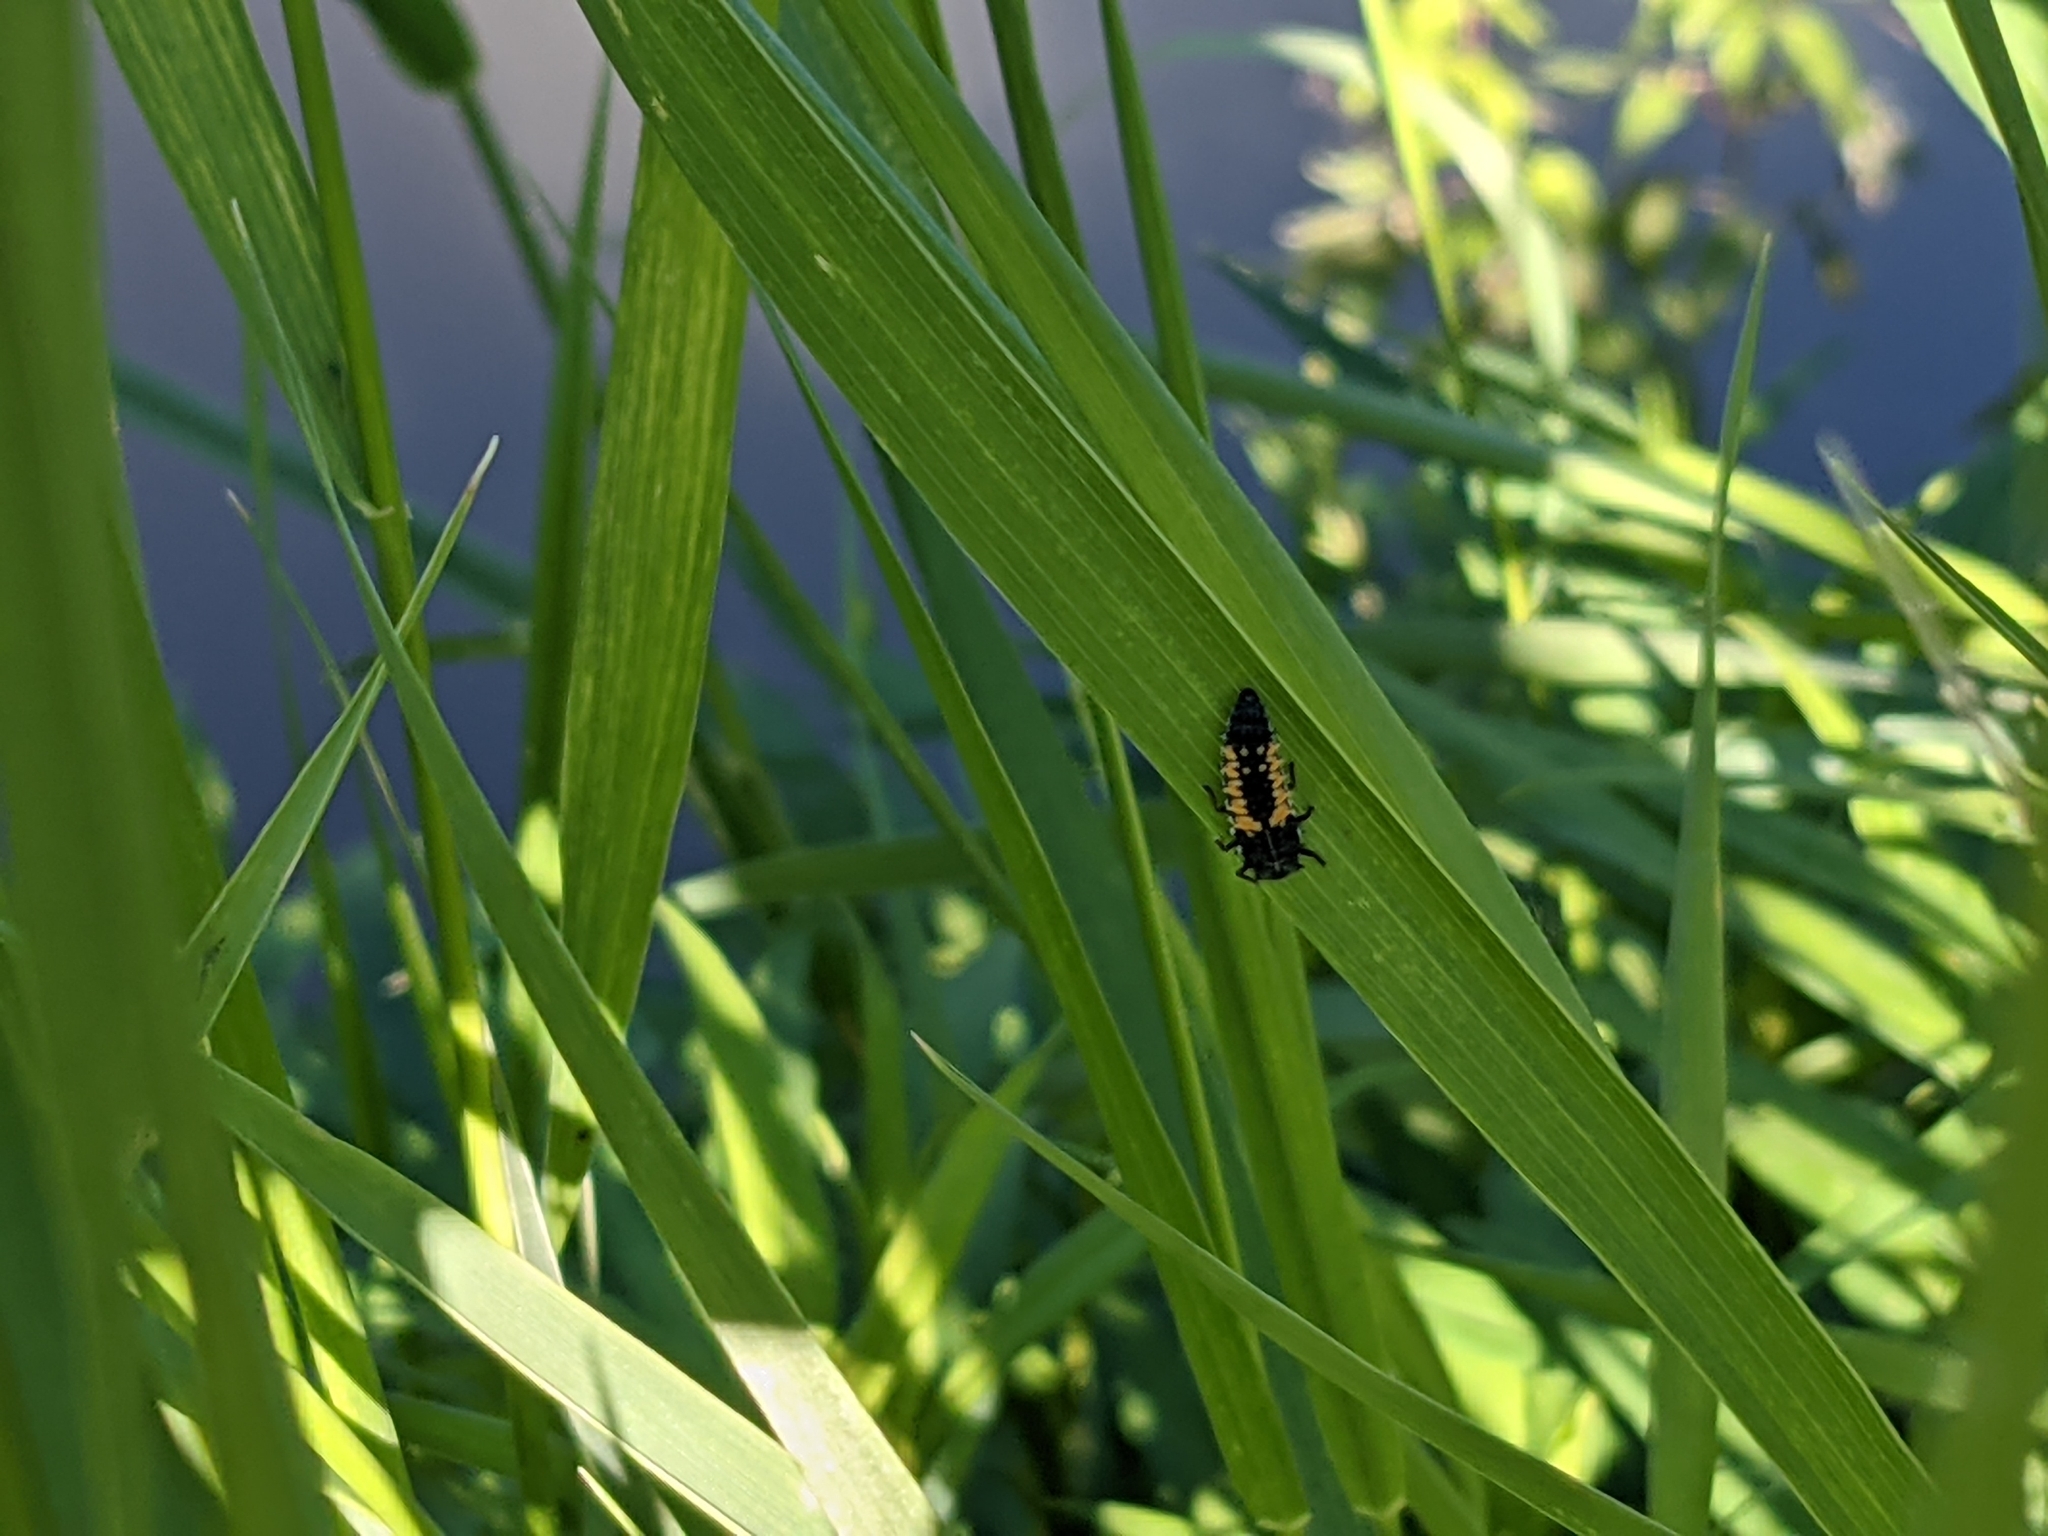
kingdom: Animalia
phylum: Arthropoda
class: Insecta
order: Coleoptera
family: Coccinellidae
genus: Harmonia
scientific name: Harmonia axyridis
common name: Harlequin ladybird
